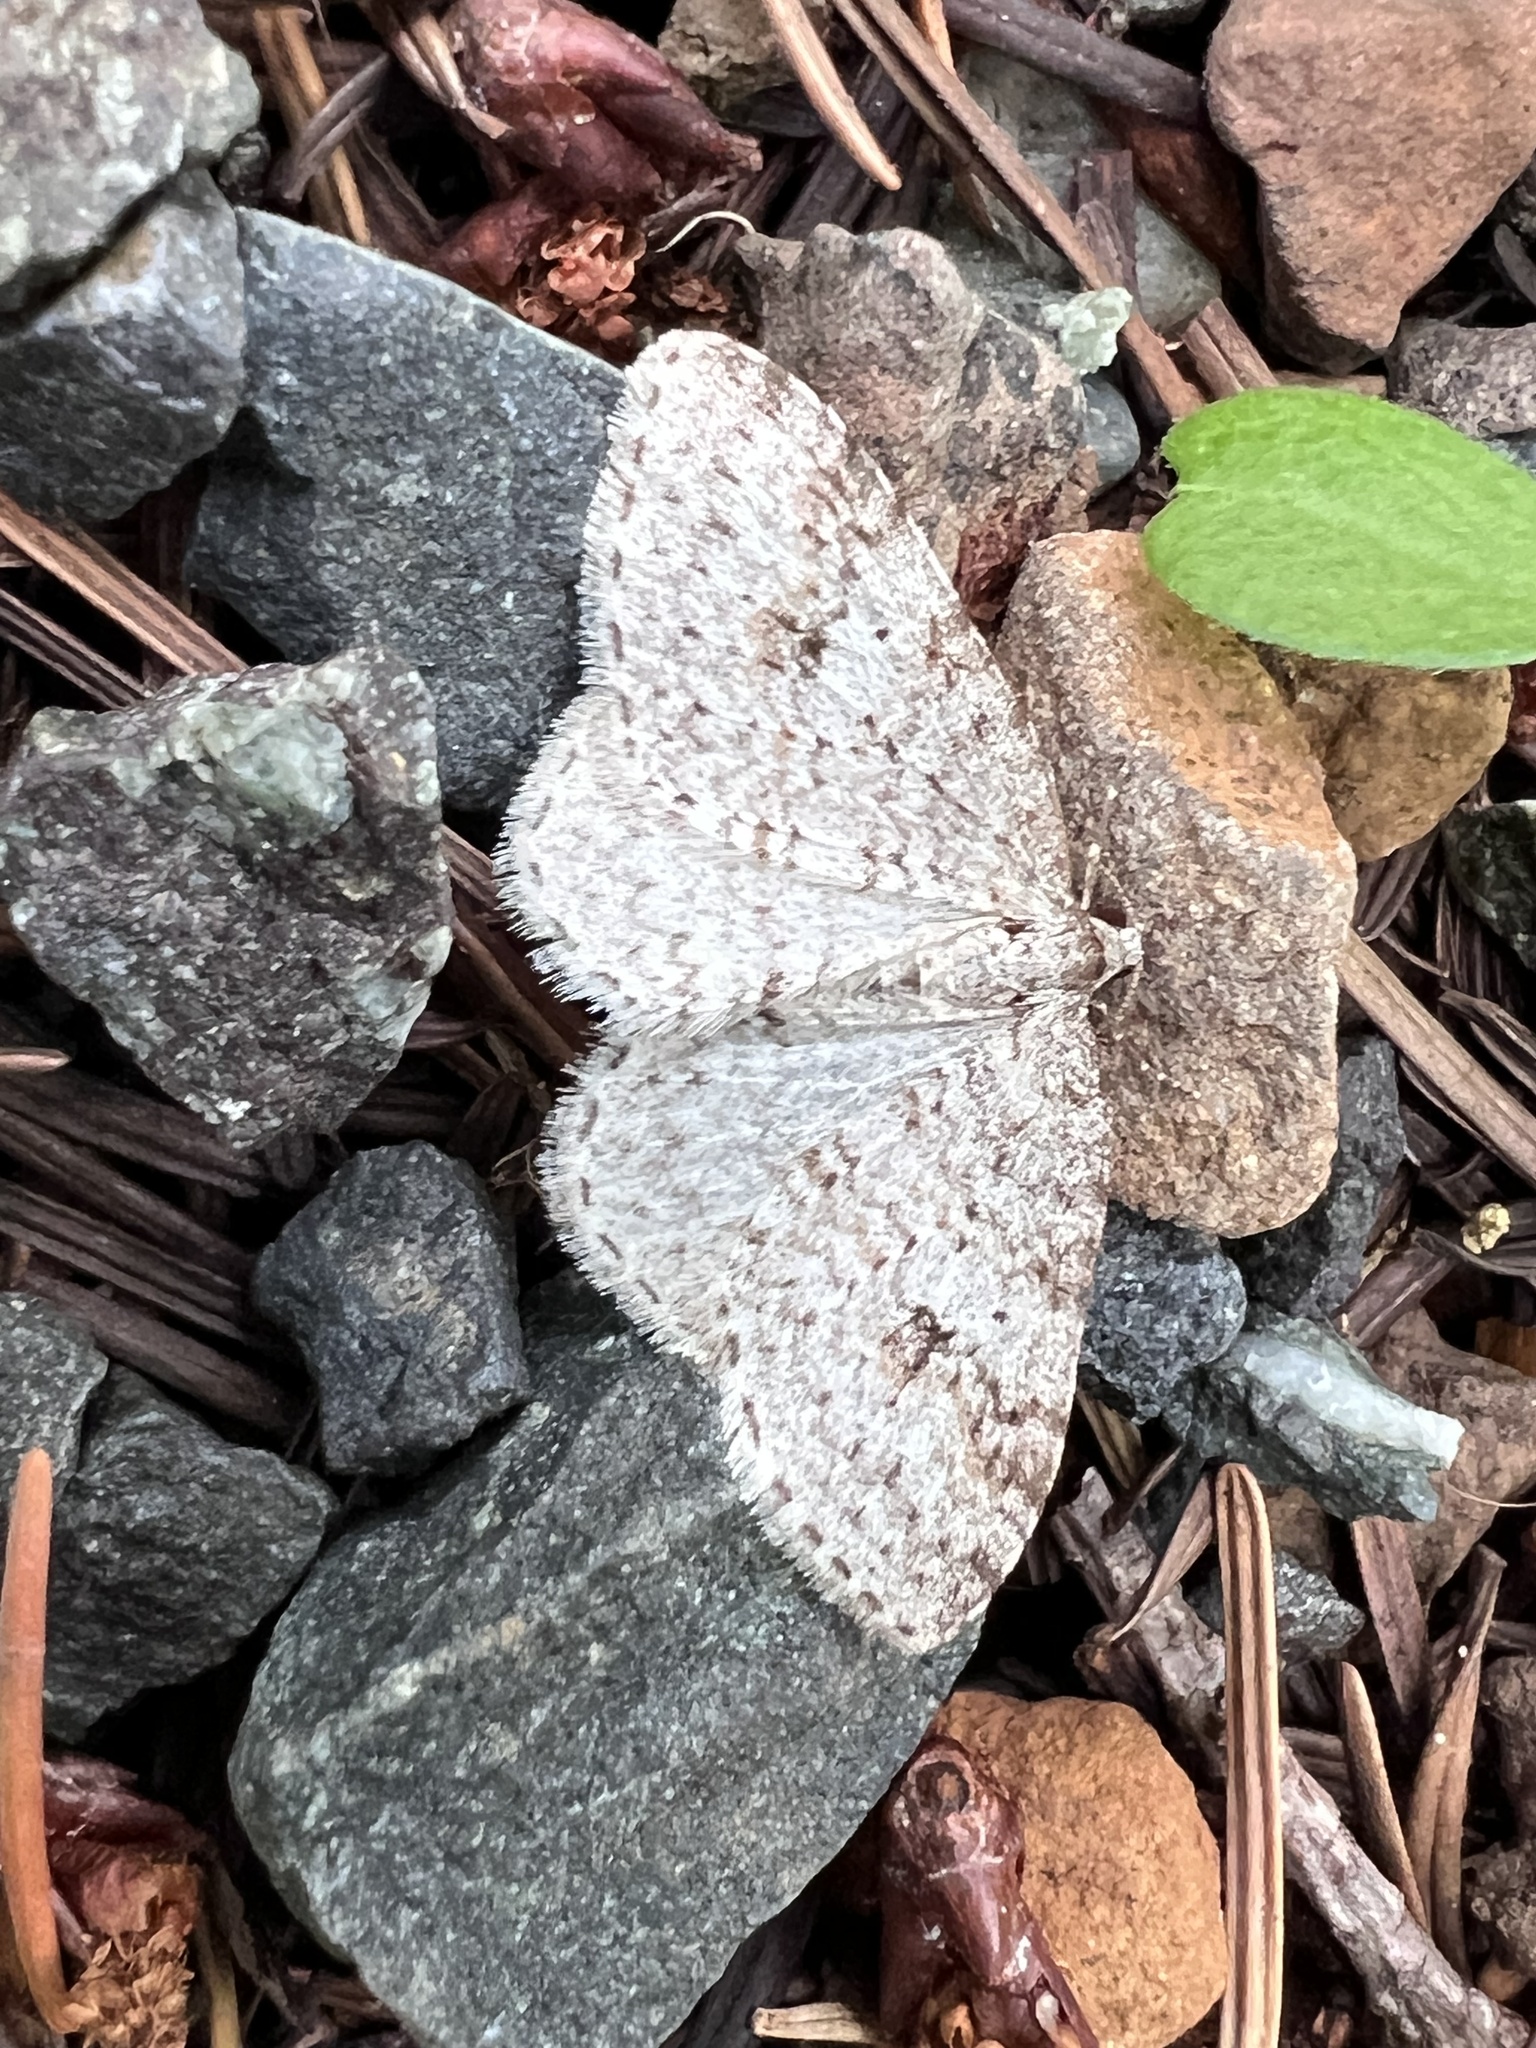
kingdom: Animalia
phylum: Arthropoda
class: Insecta
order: Lepidoptera
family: Geometridae
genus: Venusia
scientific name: Venusia pearsalli
